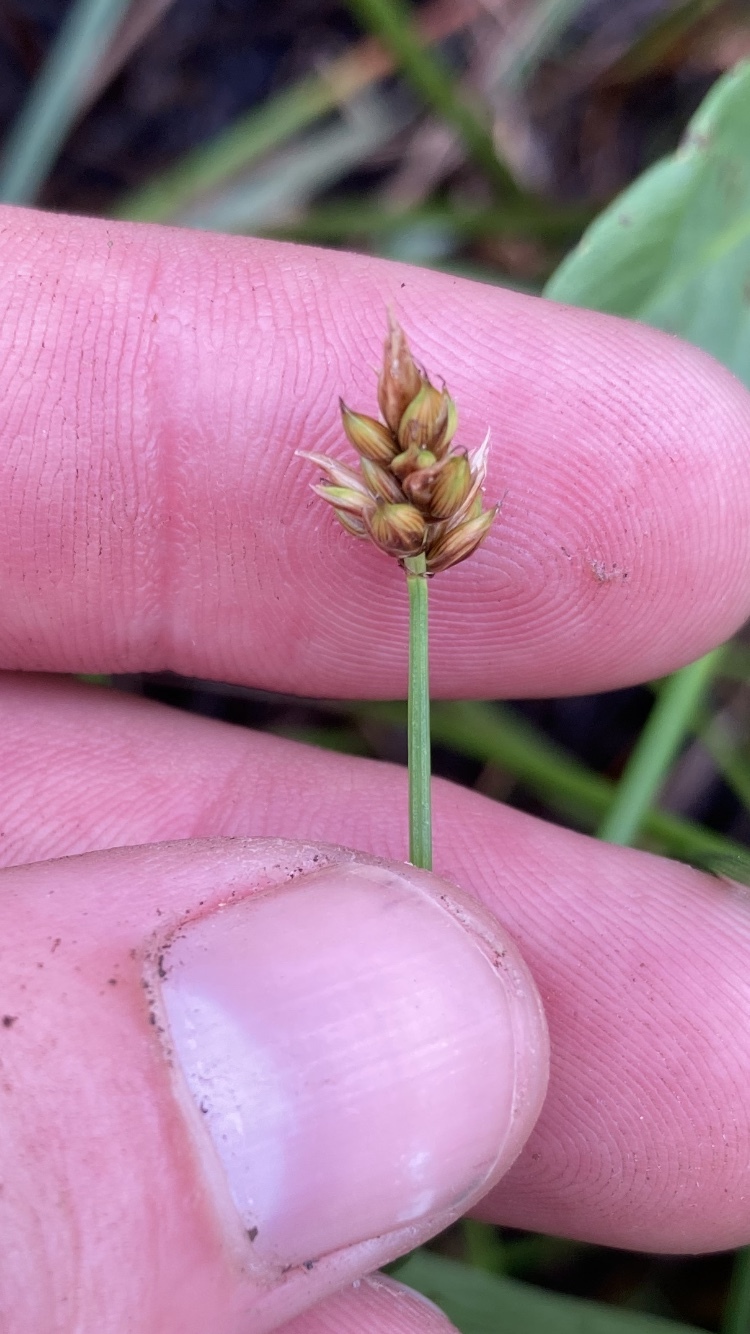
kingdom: Plantae
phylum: Tracheophyta
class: Liliopsida
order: Poales
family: Cyperaceae
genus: Carex
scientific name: Carex chordorrhiza
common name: String sedge
